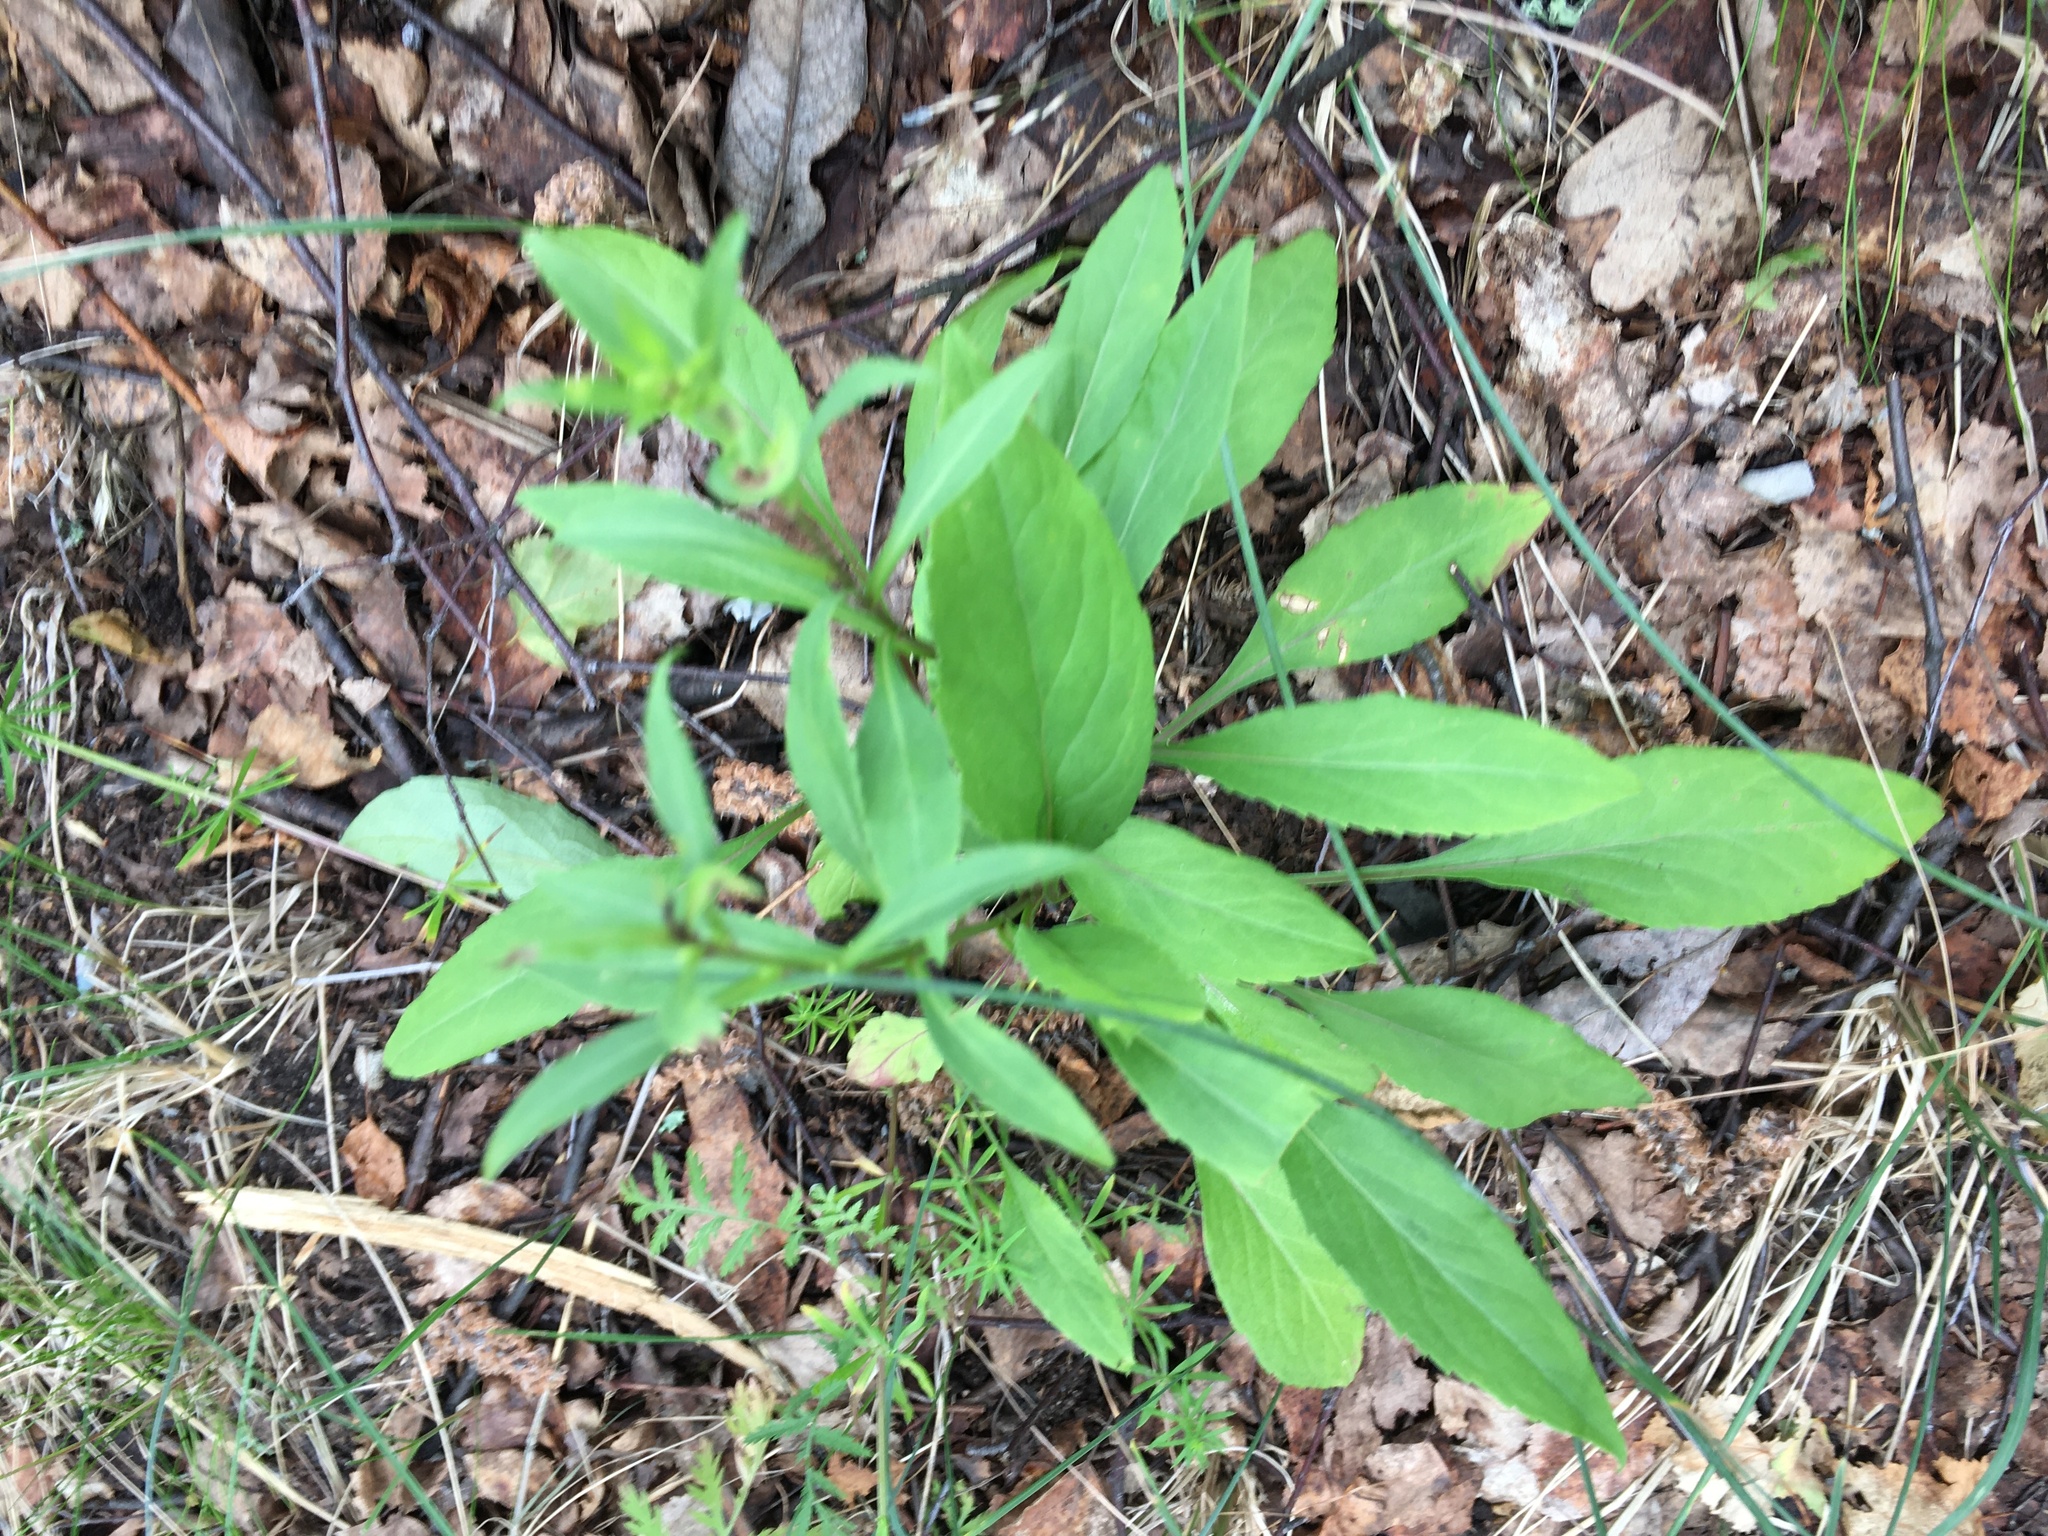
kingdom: Plantae
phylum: Tracheophyta
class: Magnoliopsida
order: Asterales
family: Asteraceae
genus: Solidago
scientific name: Solidago virgaurea
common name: Goldenrod
